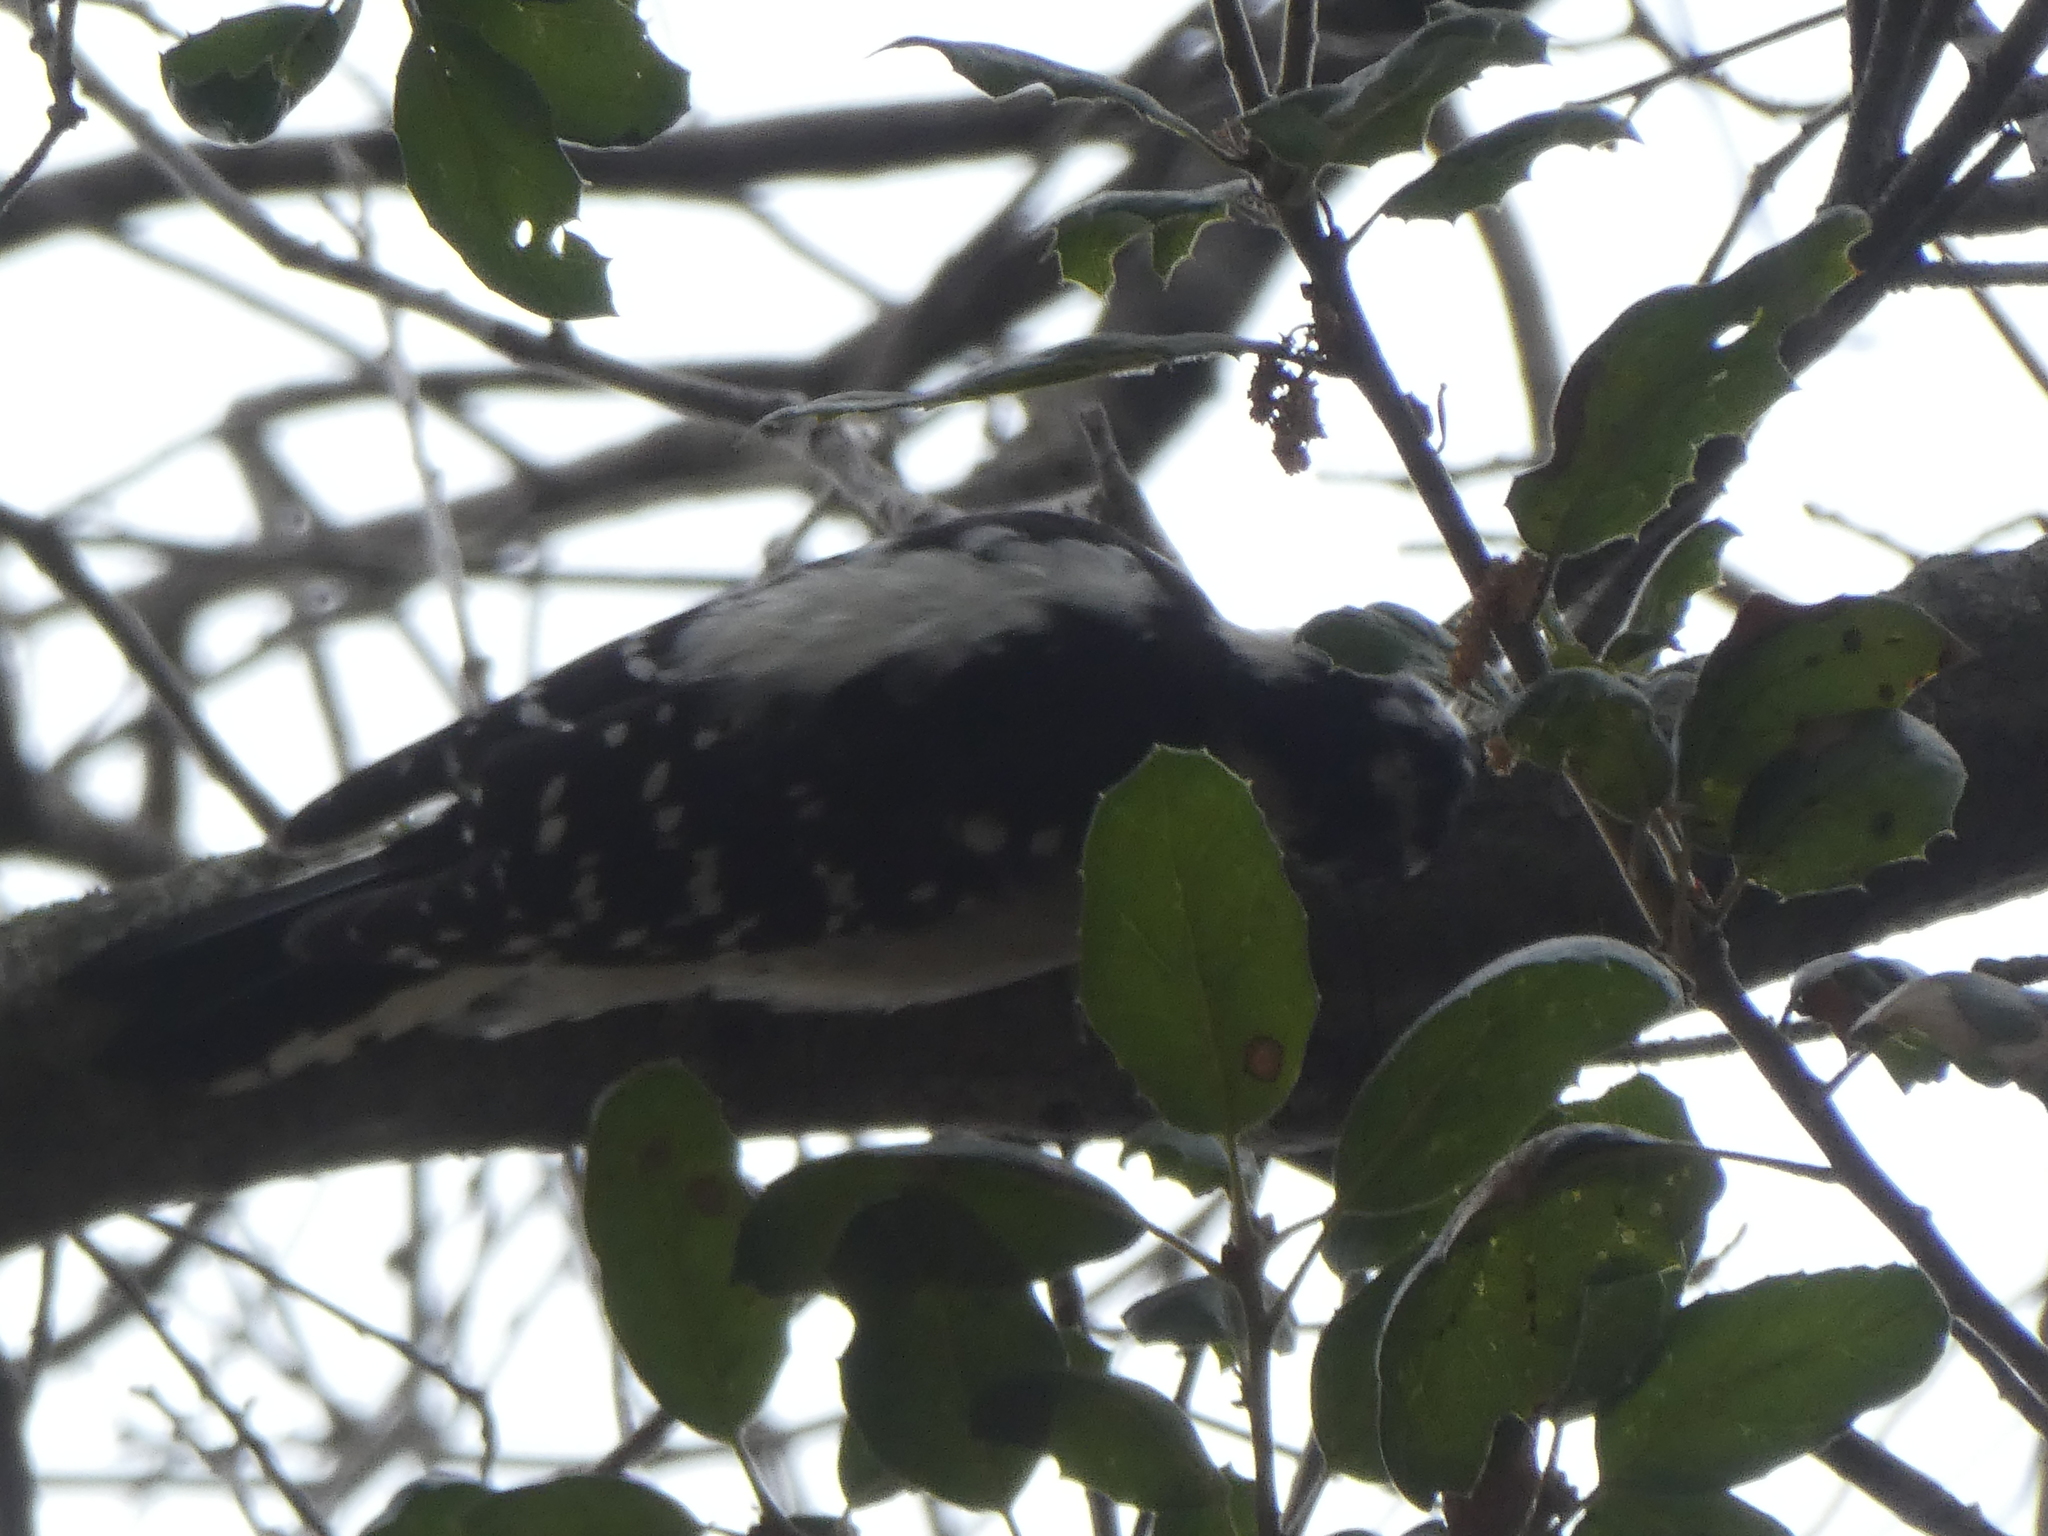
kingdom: Animalia
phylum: Chordata
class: Aves
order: Piciformes
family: Picidae
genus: Dryobates
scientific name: Dryobates pubescens
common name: Downy woodpecker
